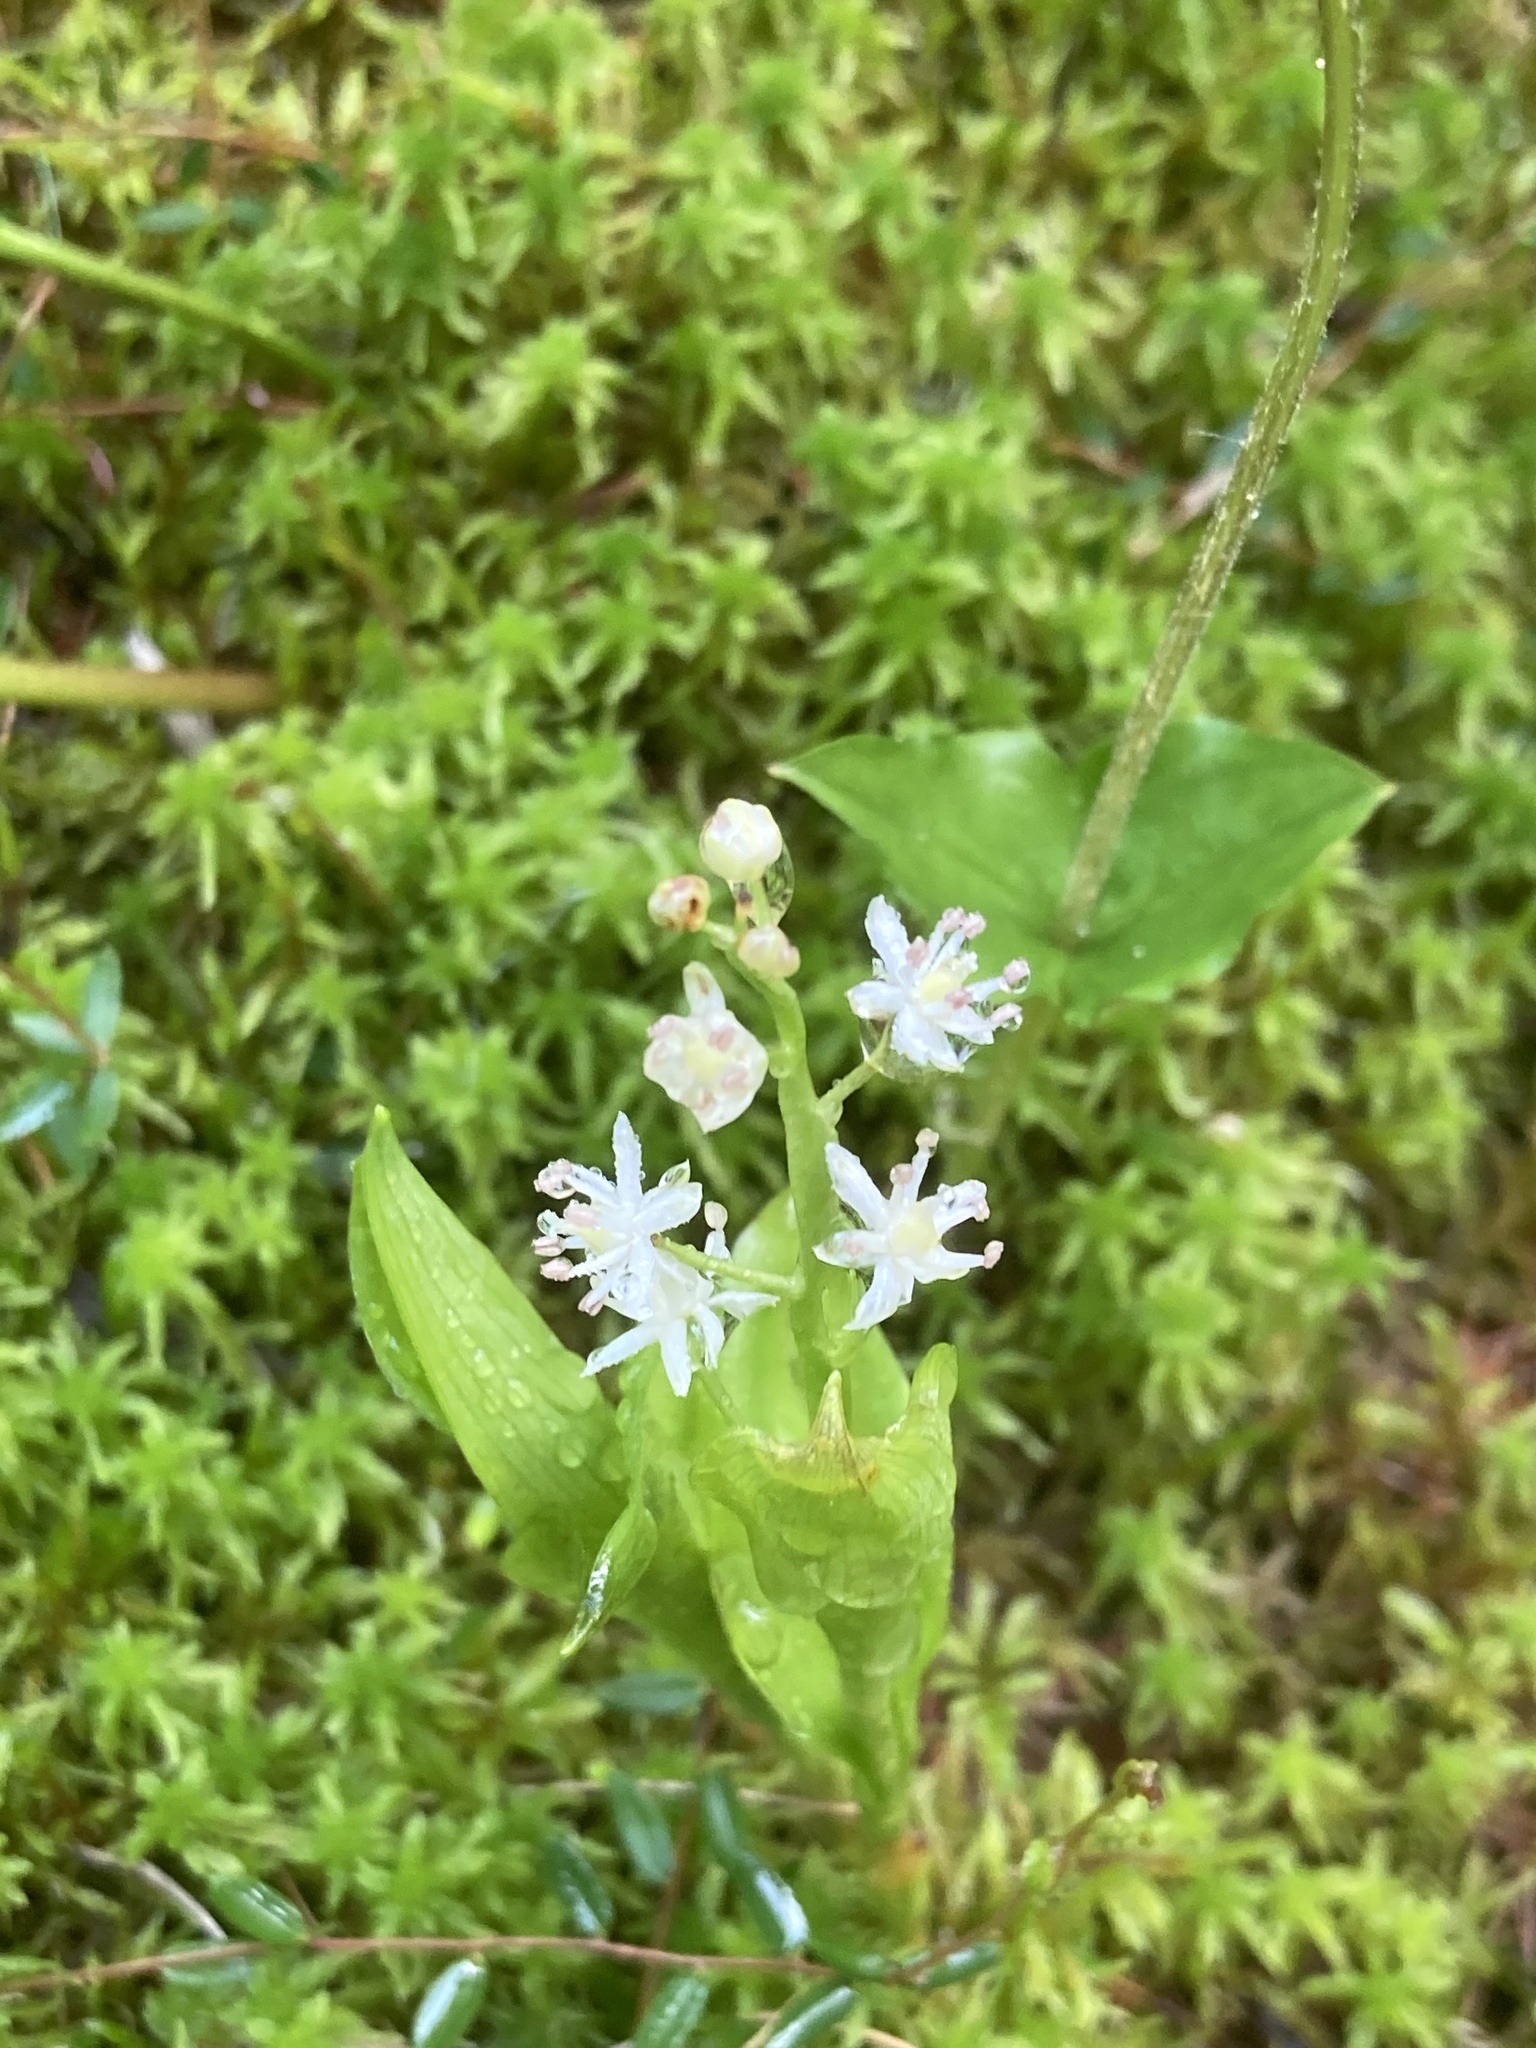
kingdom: Plantae
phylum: Tracheophyta
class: Liliopsida
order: Asparagales
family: Asparagaceae
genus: Maianthemum
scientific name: Maianthemum trifolium
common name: Swamp false solomon's seal
